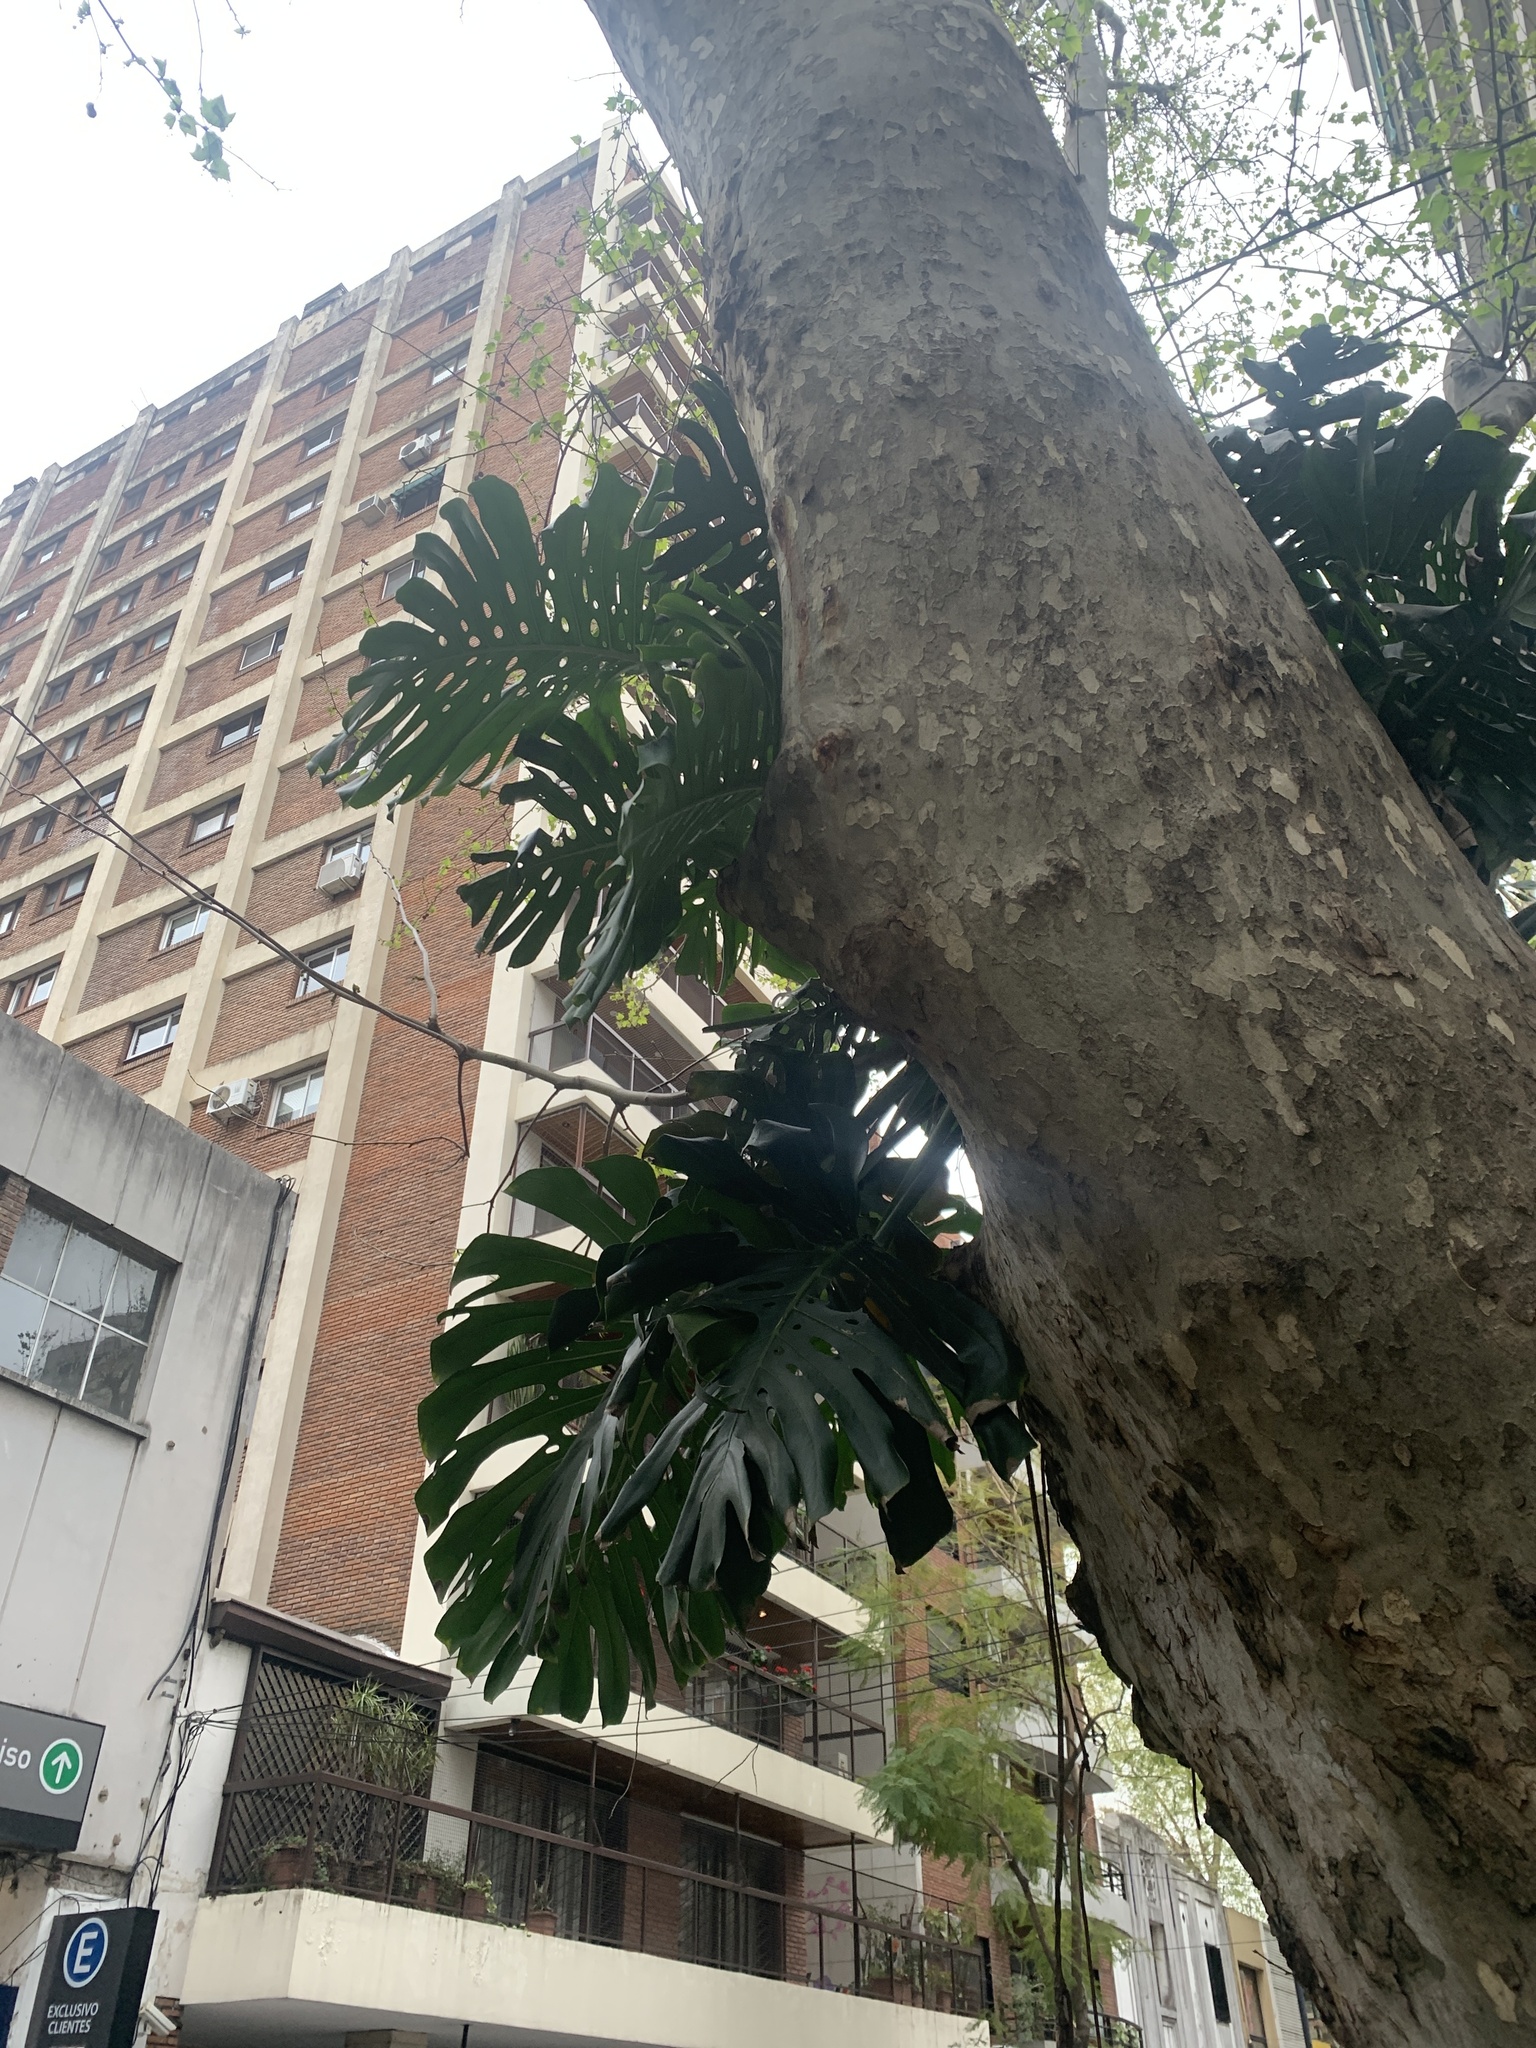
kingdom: Plantae
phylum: Tracheophyta
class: Liliopsida
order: Alismatales
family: Araceae
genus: Monstera
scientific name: Monstera deliciosa
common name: Cut-leaf-philodendron
